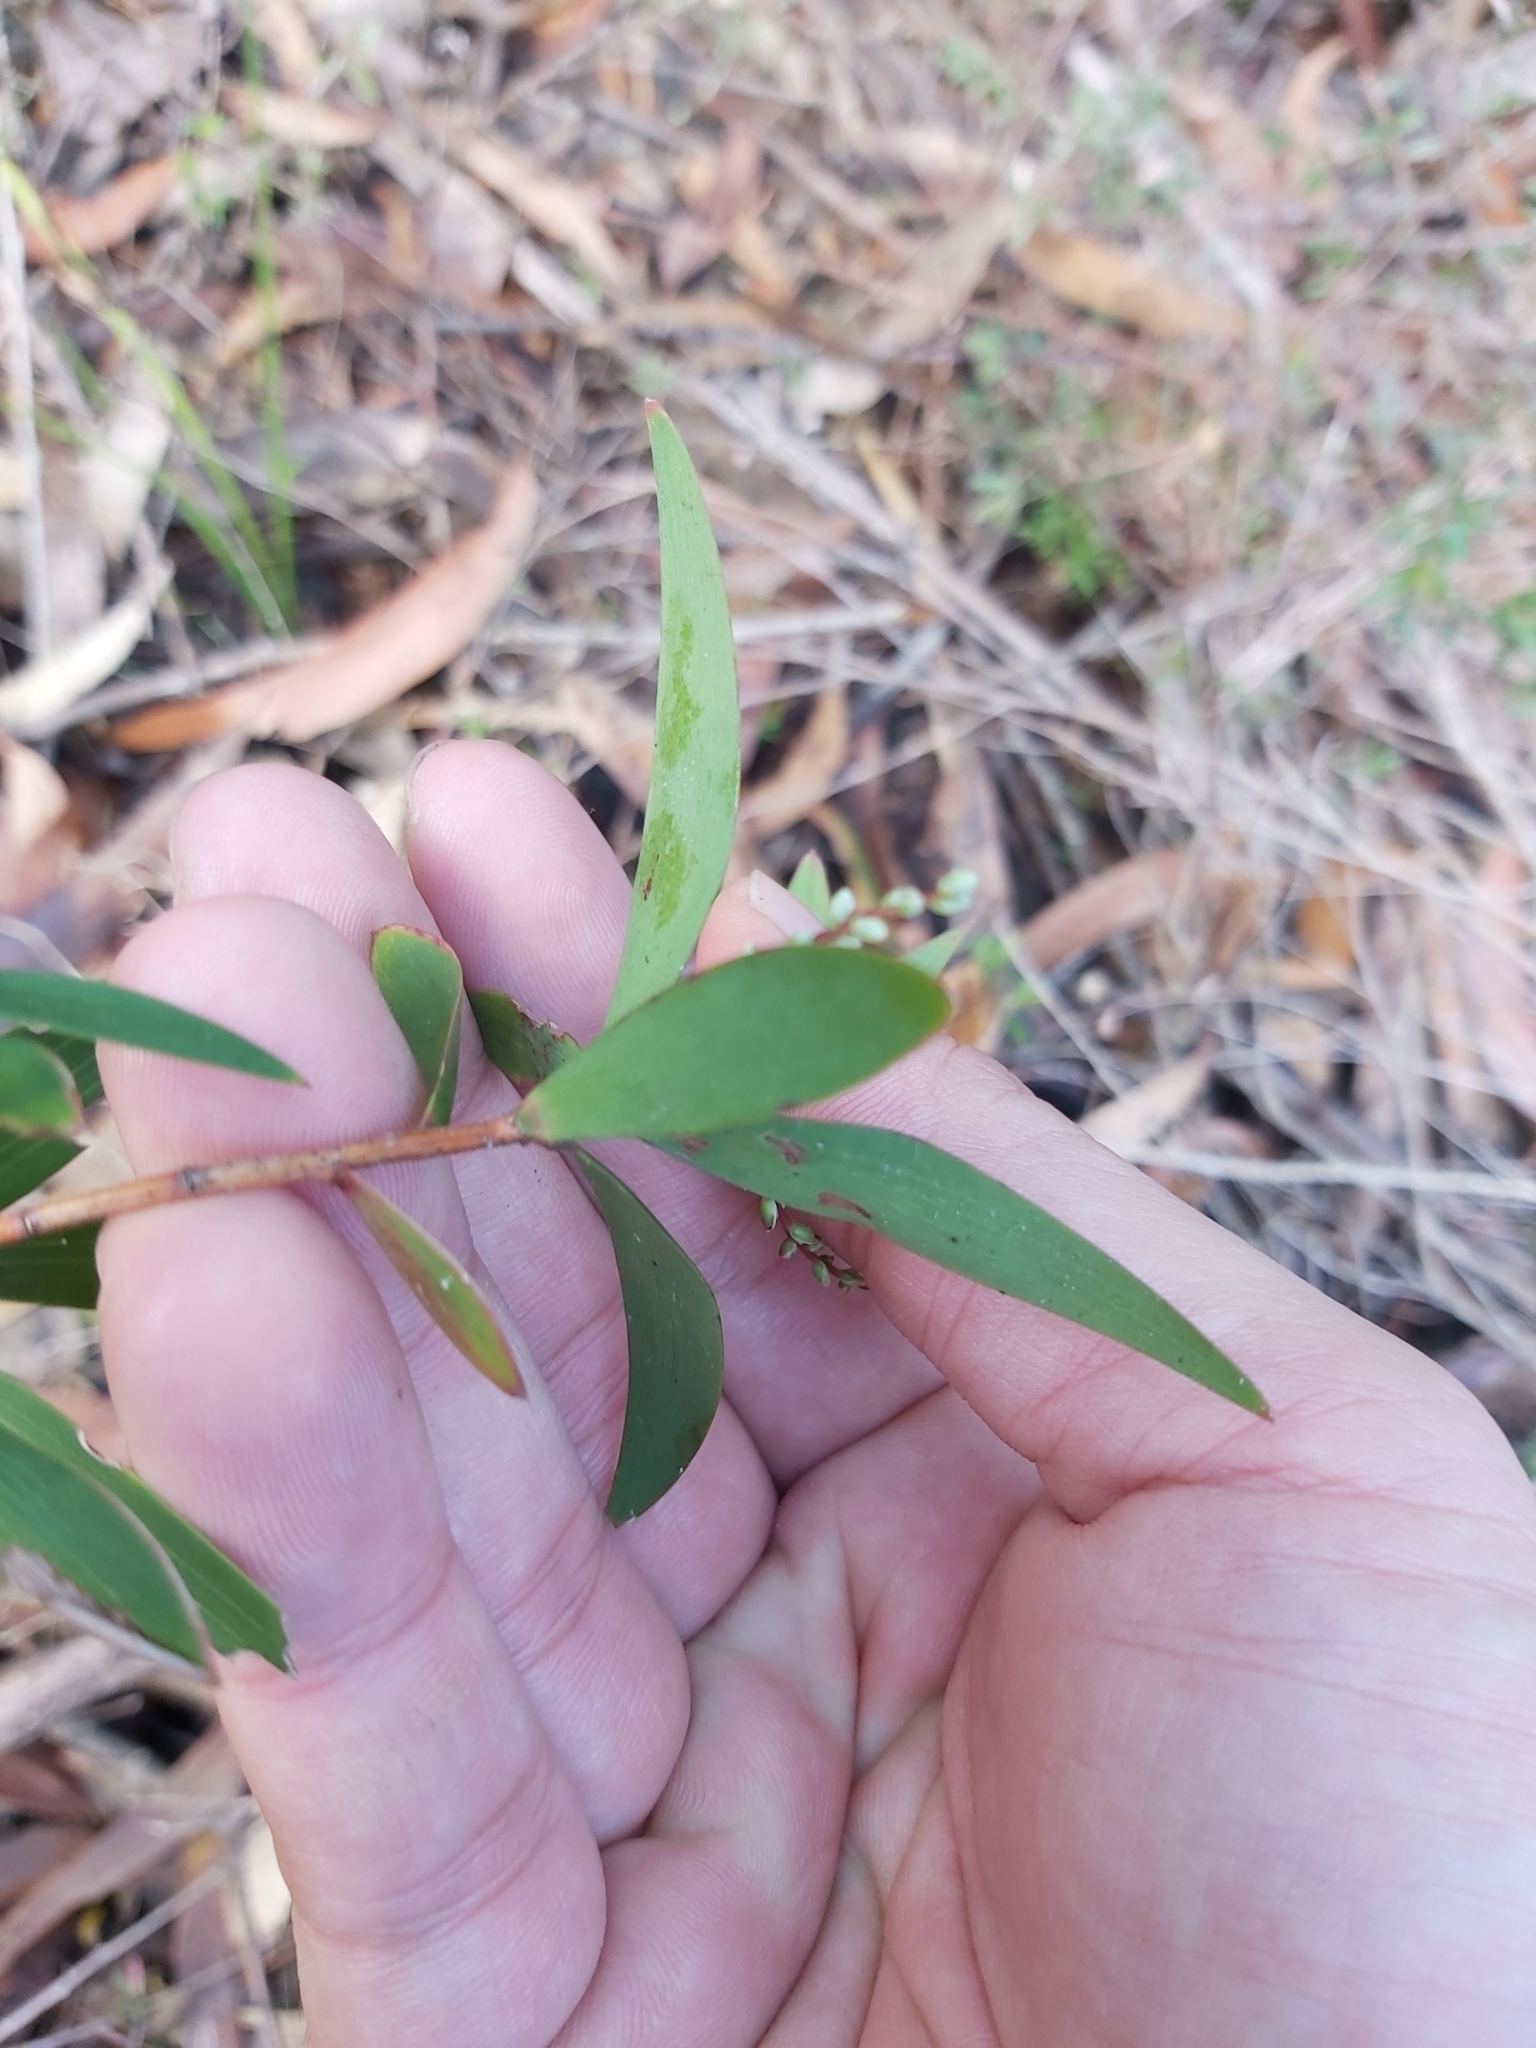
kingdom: Plantae
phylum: Tracheophyta
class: Magnoliopsida
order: Ericales
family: Ericaceae
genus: Leucopogon
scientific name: Leucopogon lanceolatus
